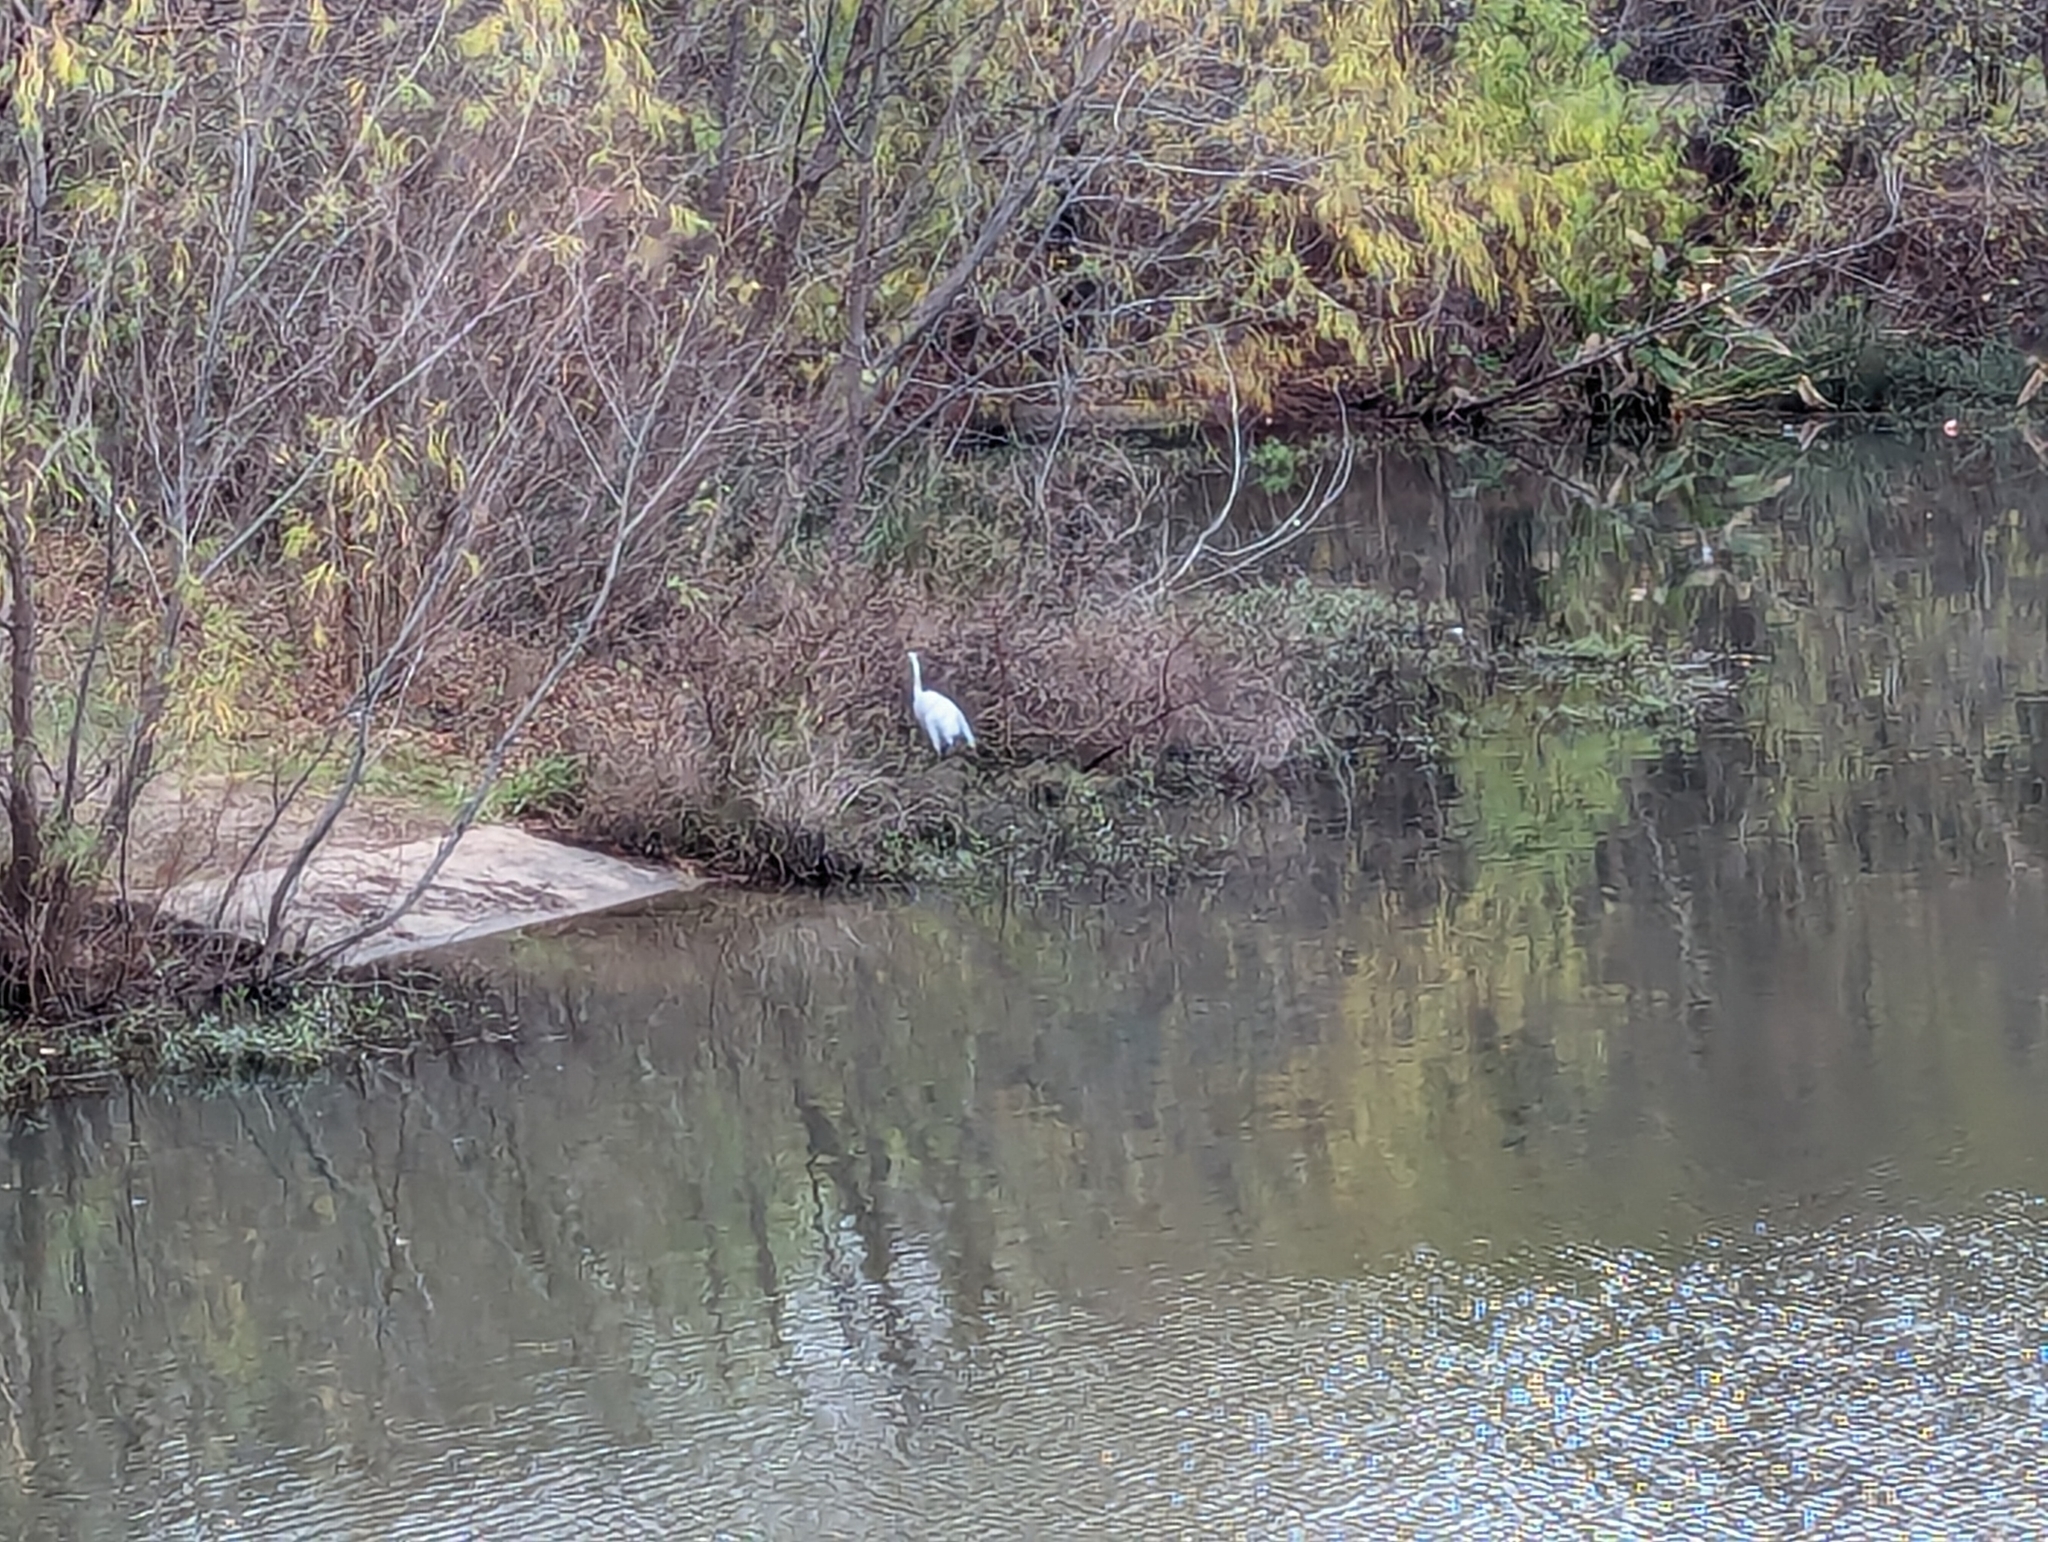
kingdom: Animalia
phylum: Chordata
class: Aves
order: Pelecaniformes
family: Ardeidae
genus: Ardea
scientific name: Ardea alba
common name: Great egret
